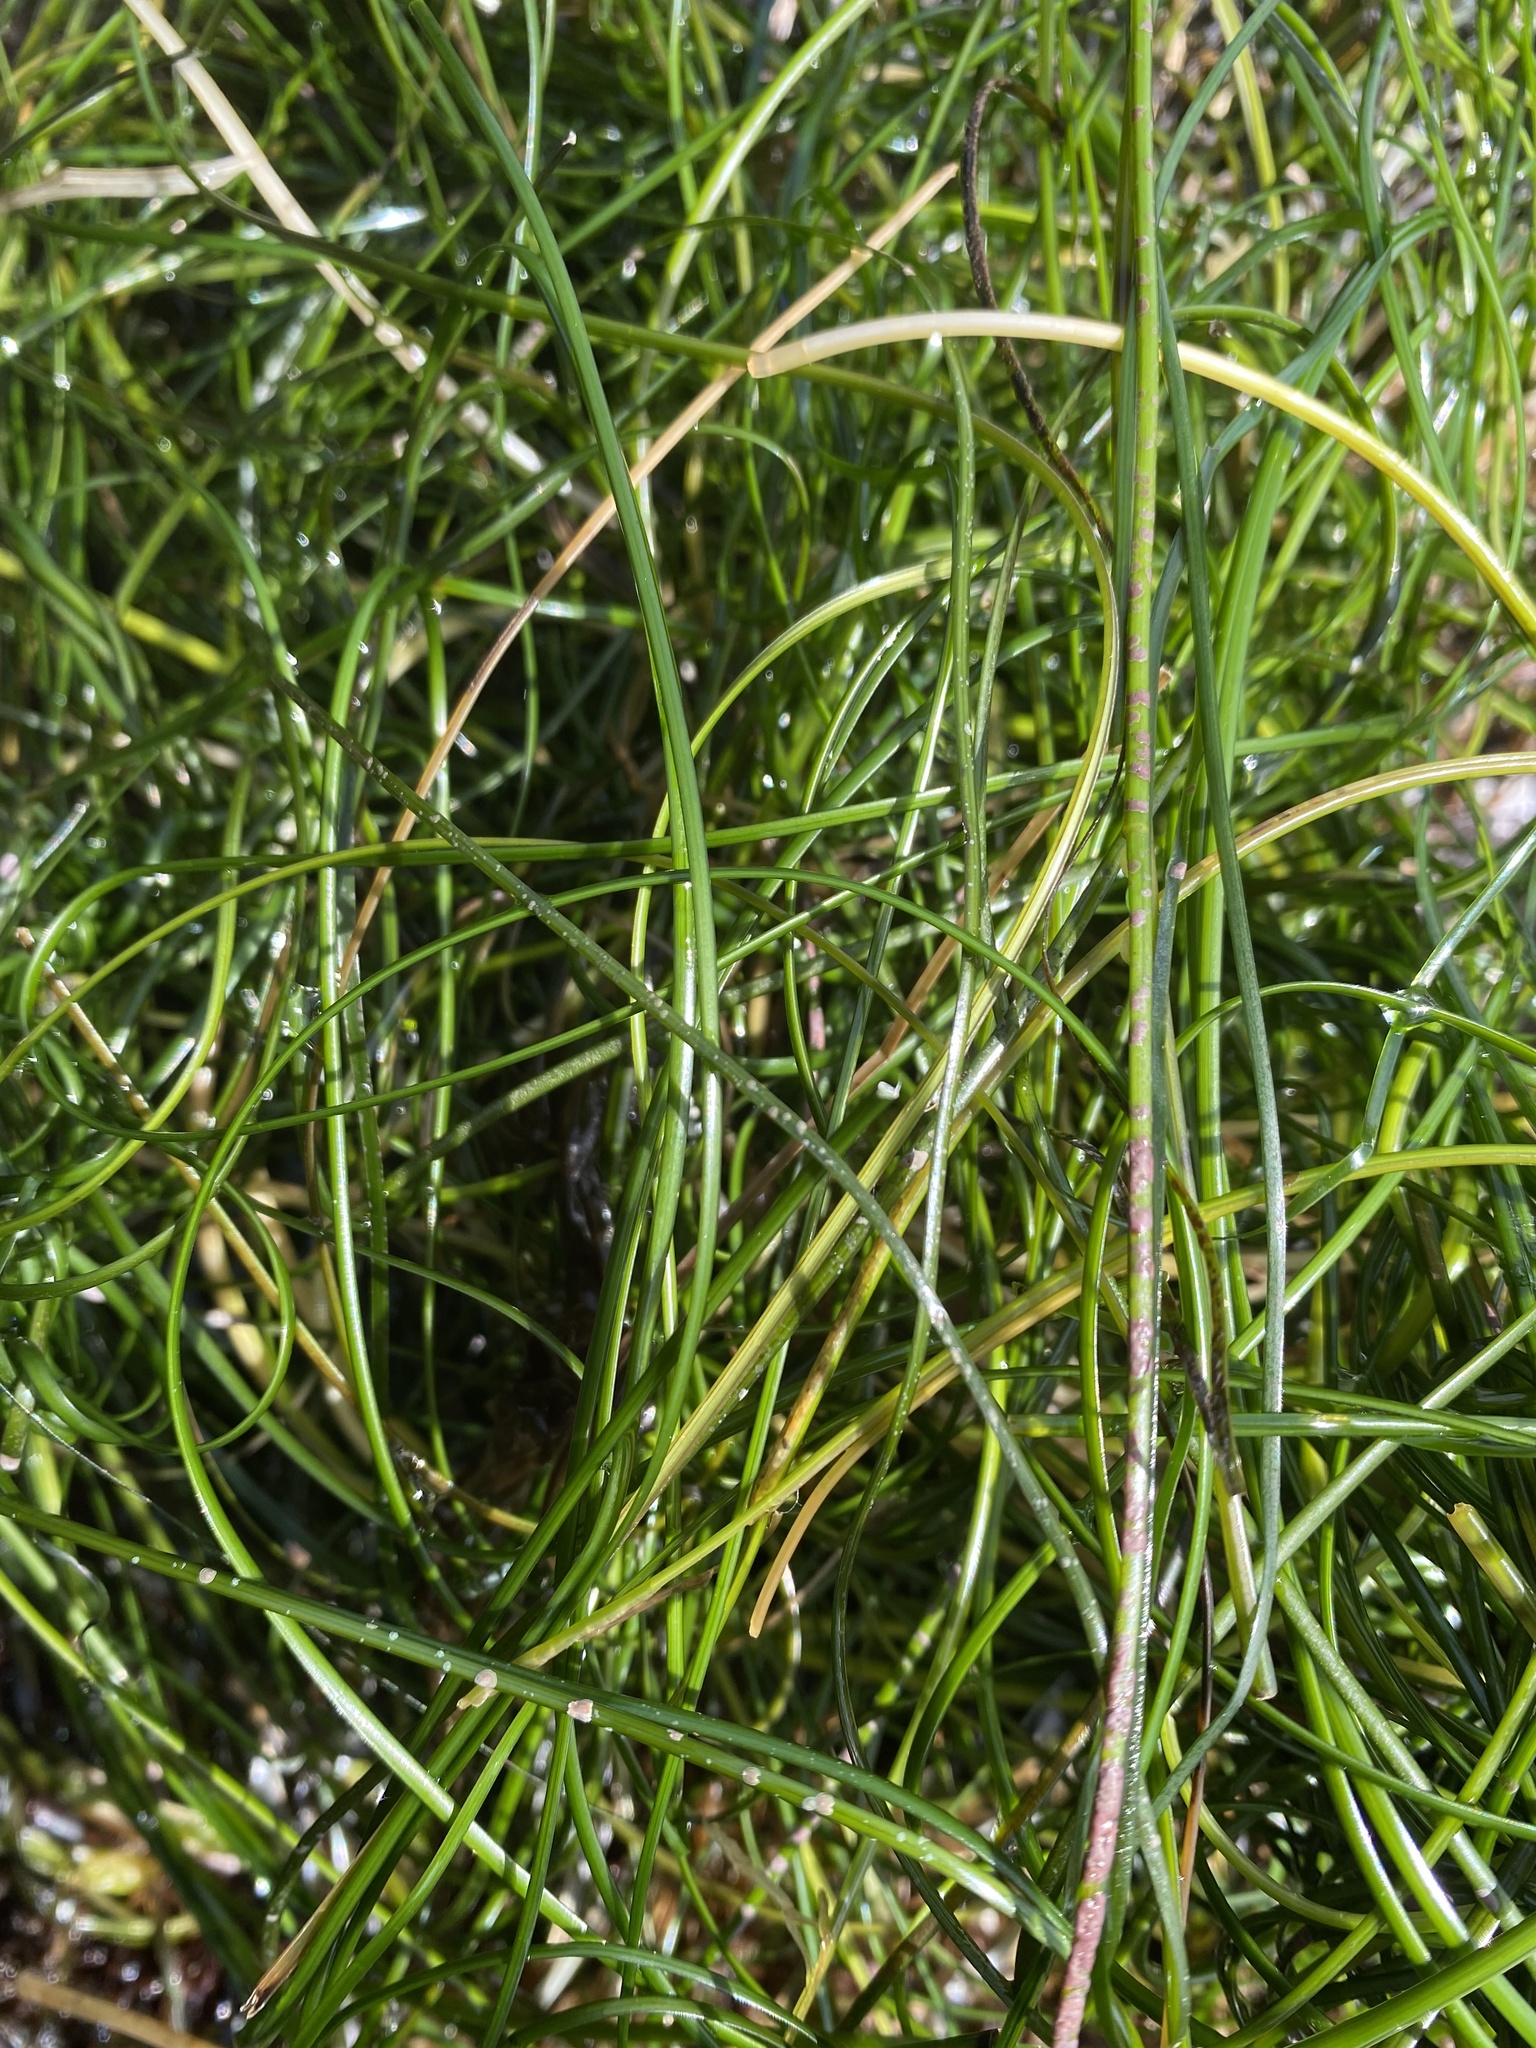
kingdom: Plantae
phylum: Tracheophyta
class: Liliopsida
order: Alismatales
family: Zosteraceae
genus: Phyllospadix
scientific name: Phyllospadix torreyi
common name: Surfgrass
